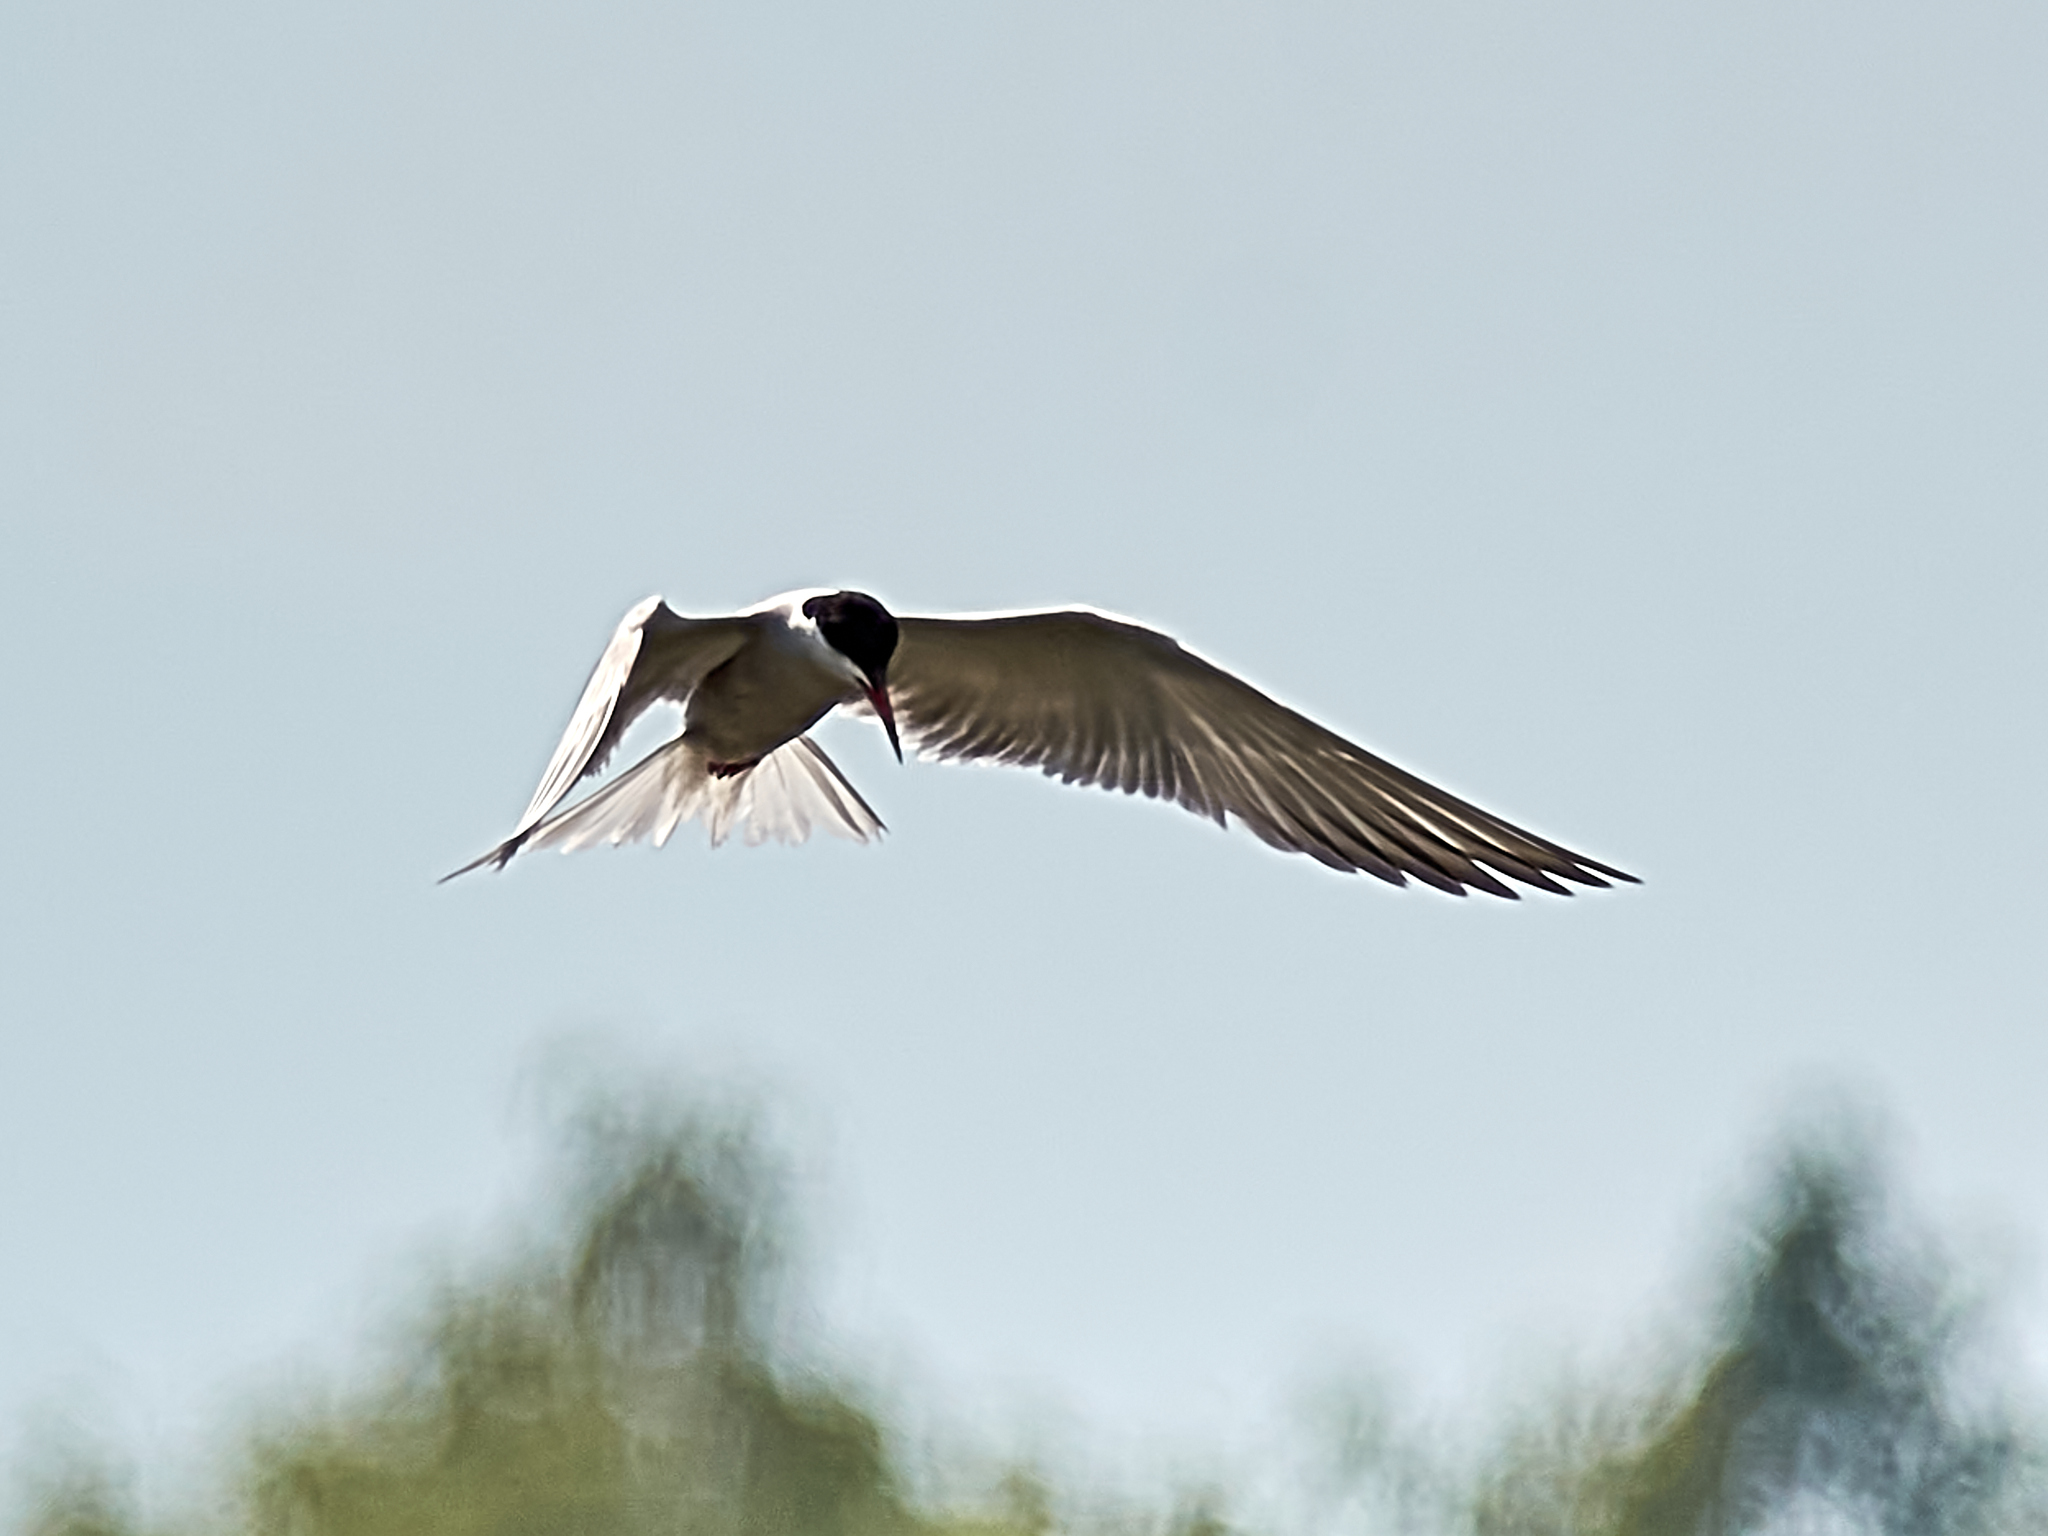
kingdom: Animalia
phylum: Chordata
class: Aves
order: Charadriiformes
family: Laridae
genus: Sterna
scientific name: Sterna hirundo
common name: Common tern
